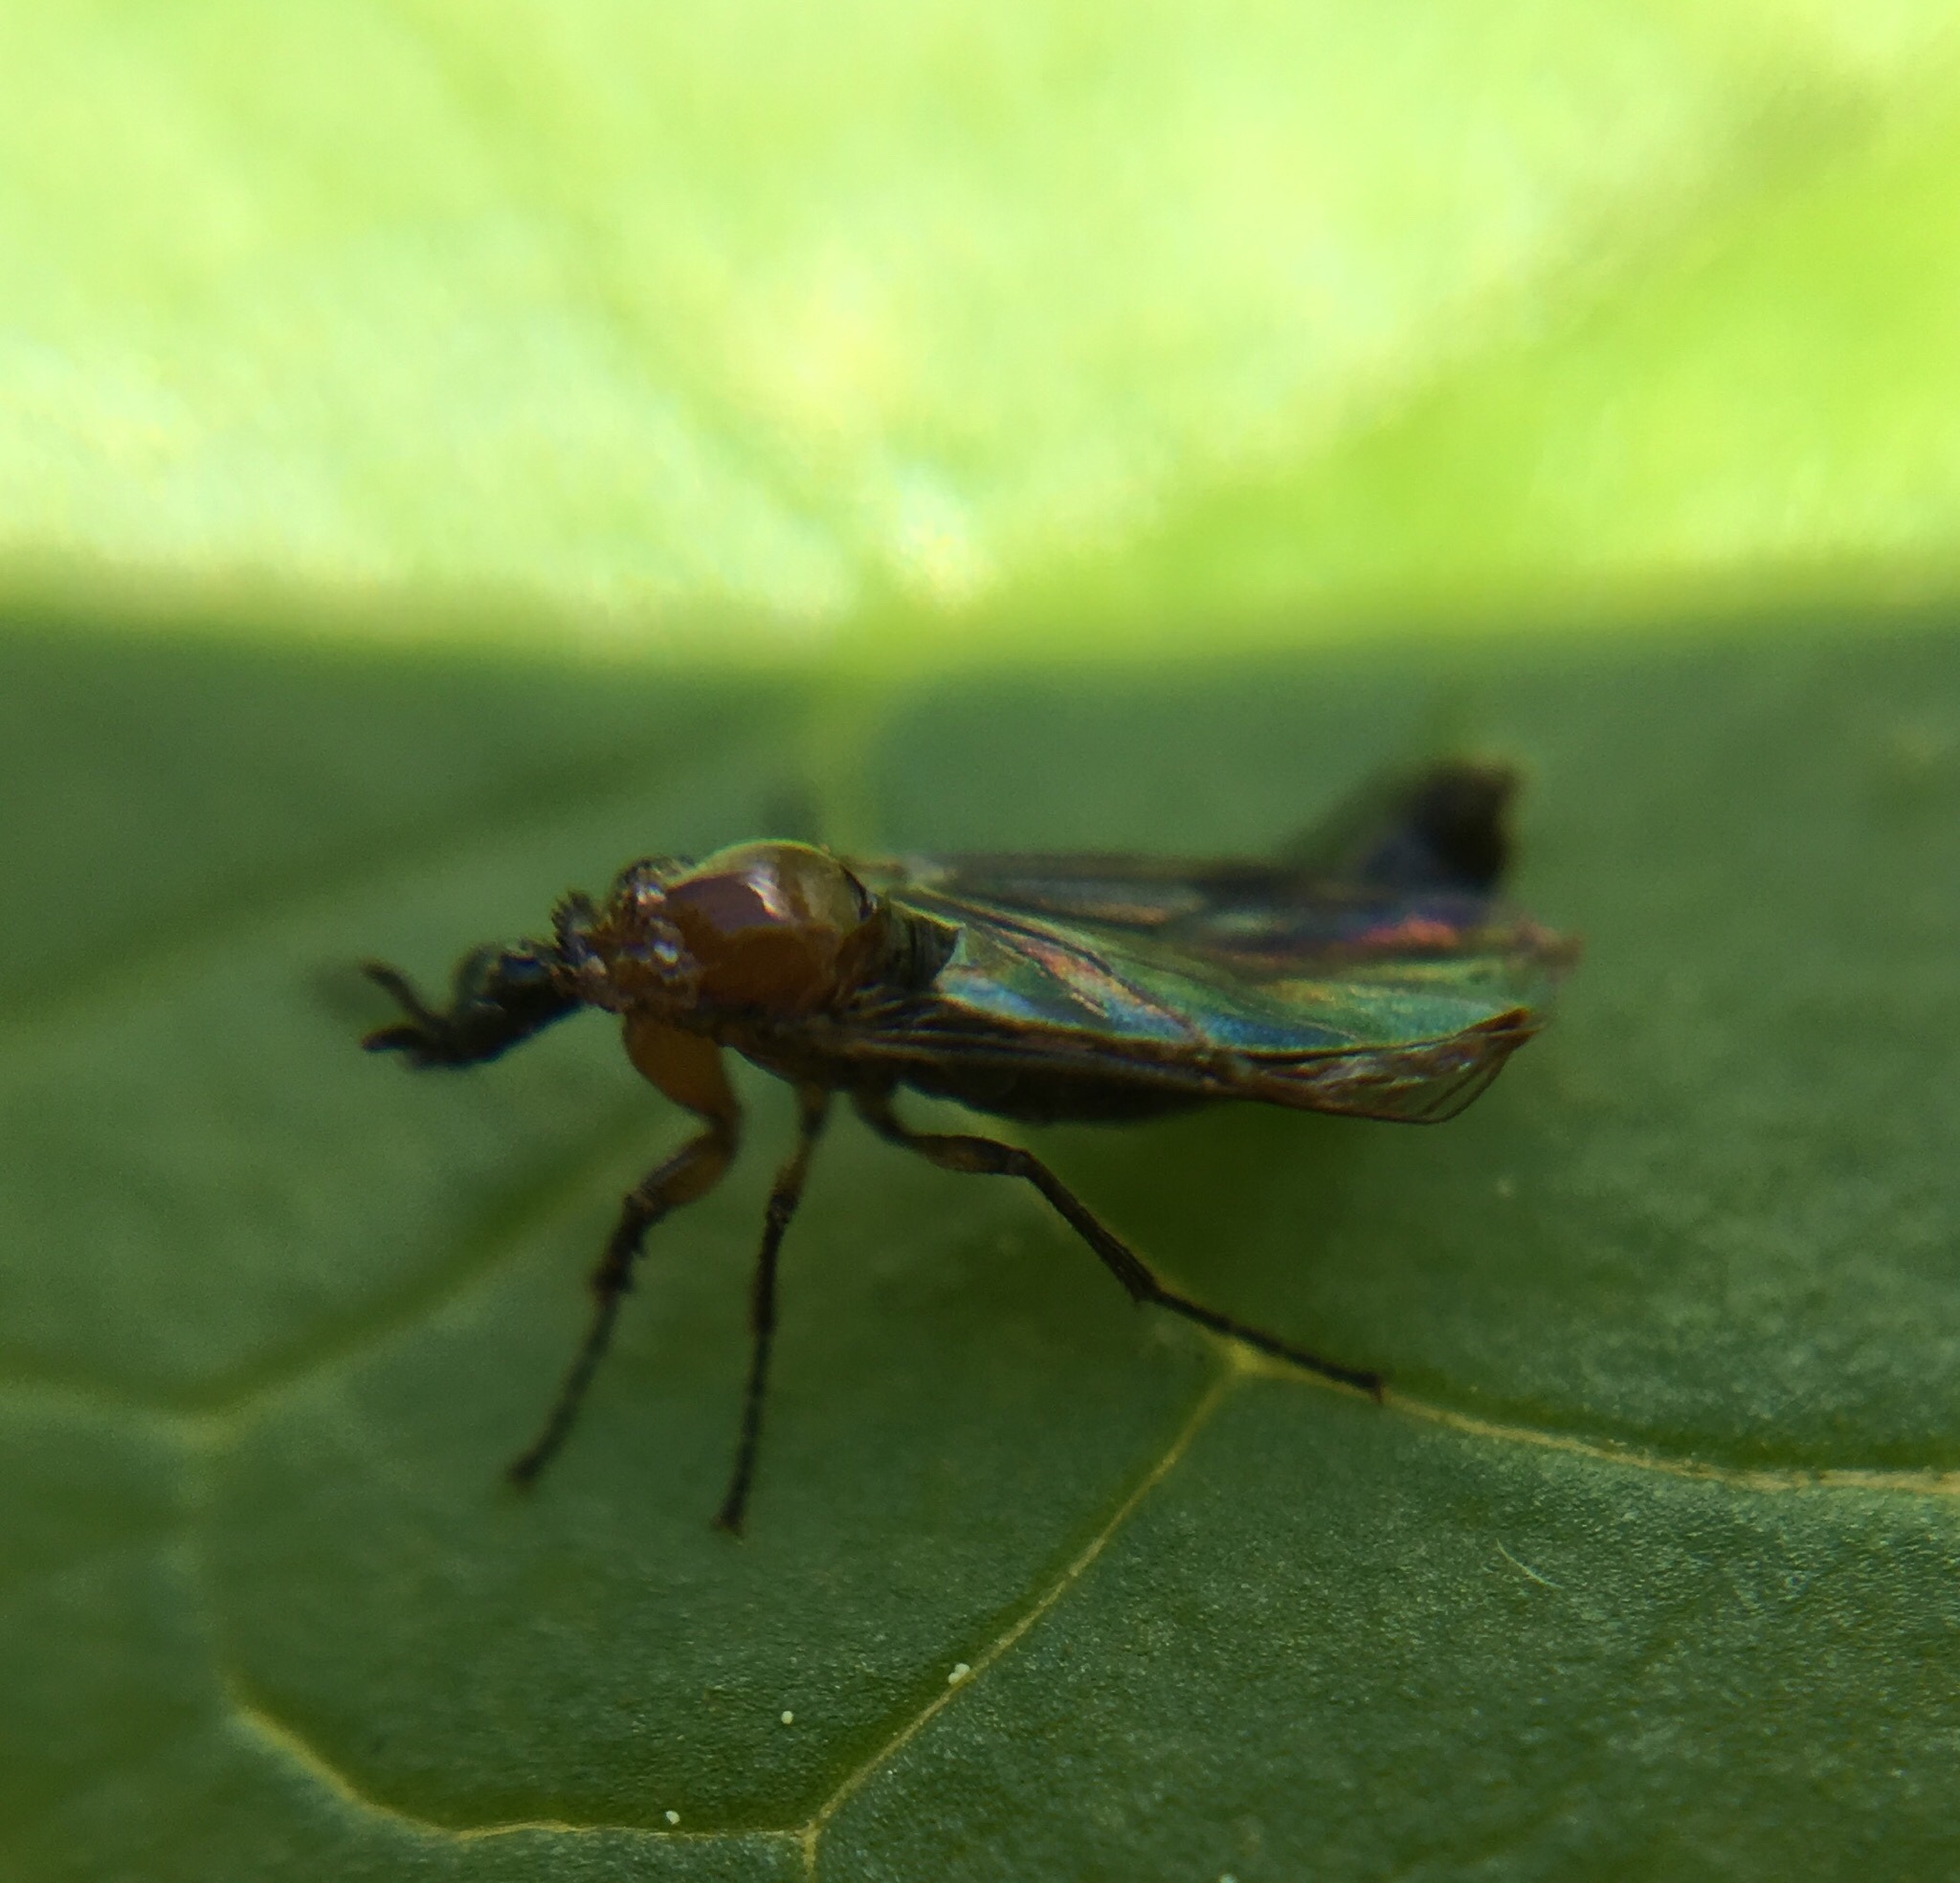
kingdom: Animalia
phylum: Arthropoda
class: Insecta
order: Diptera
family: Bibionidae
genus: Dilophus
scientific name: Dilophus tibialis
